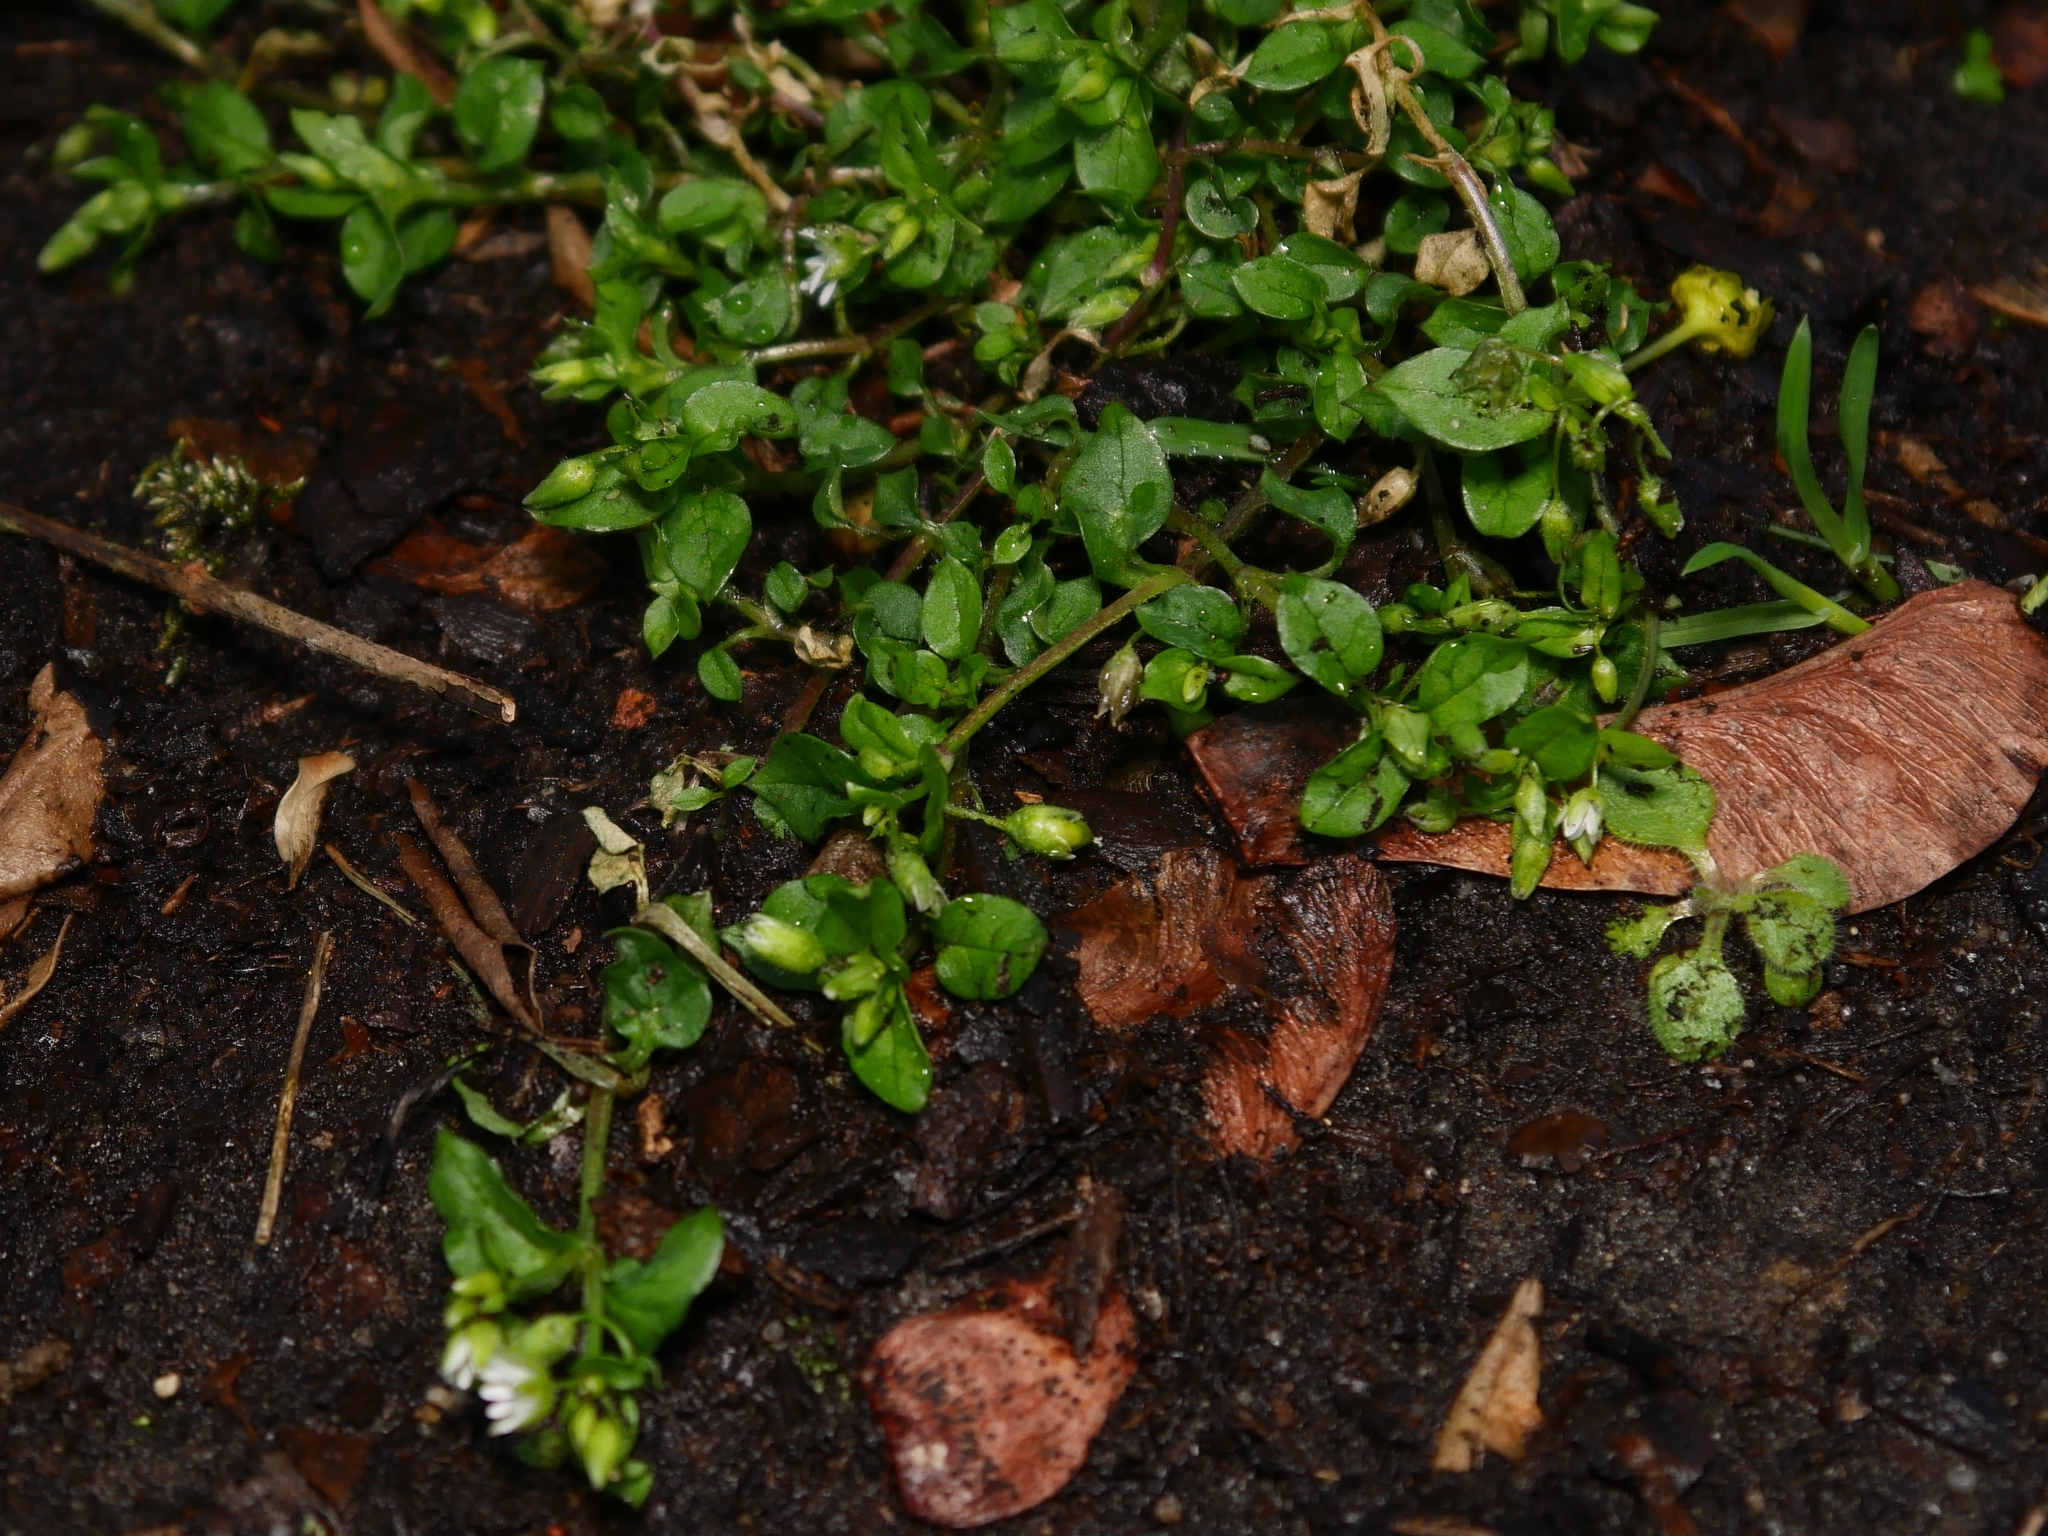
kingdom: Plantae
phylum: Tracheophyta
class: Magnoliopsida
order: Caryophyllales
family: Caryophyllaceae
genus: Stellaria
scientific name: Stellaria media
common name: Common chickweed
